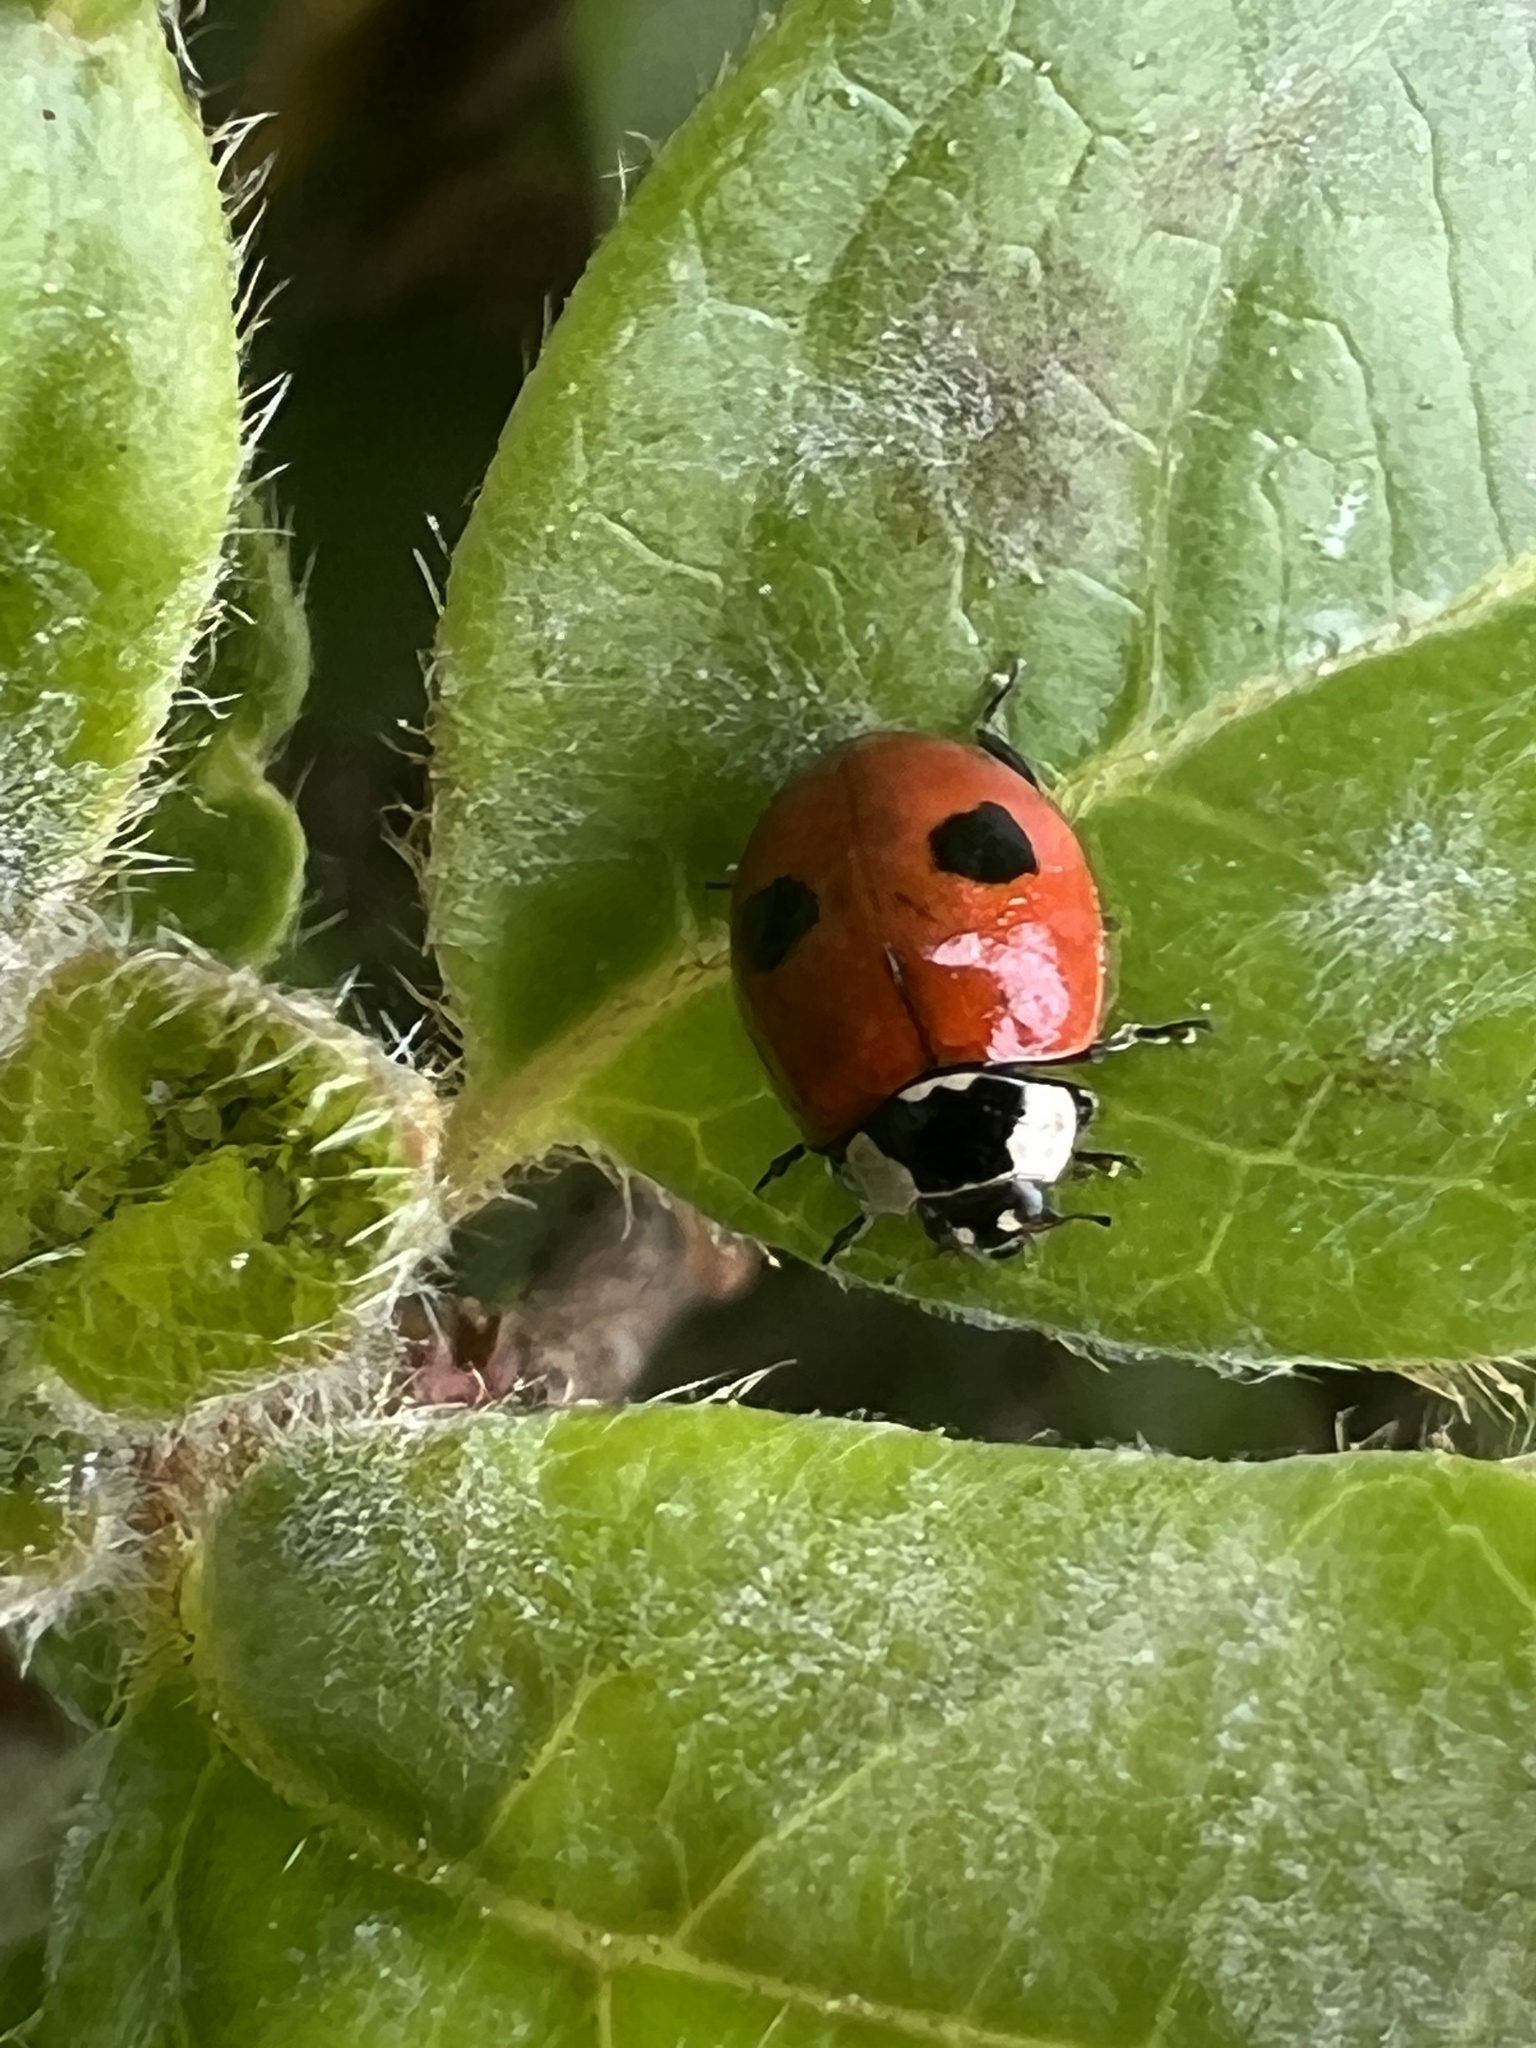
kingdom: Animalia
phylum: Arthropoda
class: Insecta
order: Coleoptera
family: Coccinellidae
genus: Adalia
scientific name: Adalia bipunctata
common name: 2-spot ladybird
